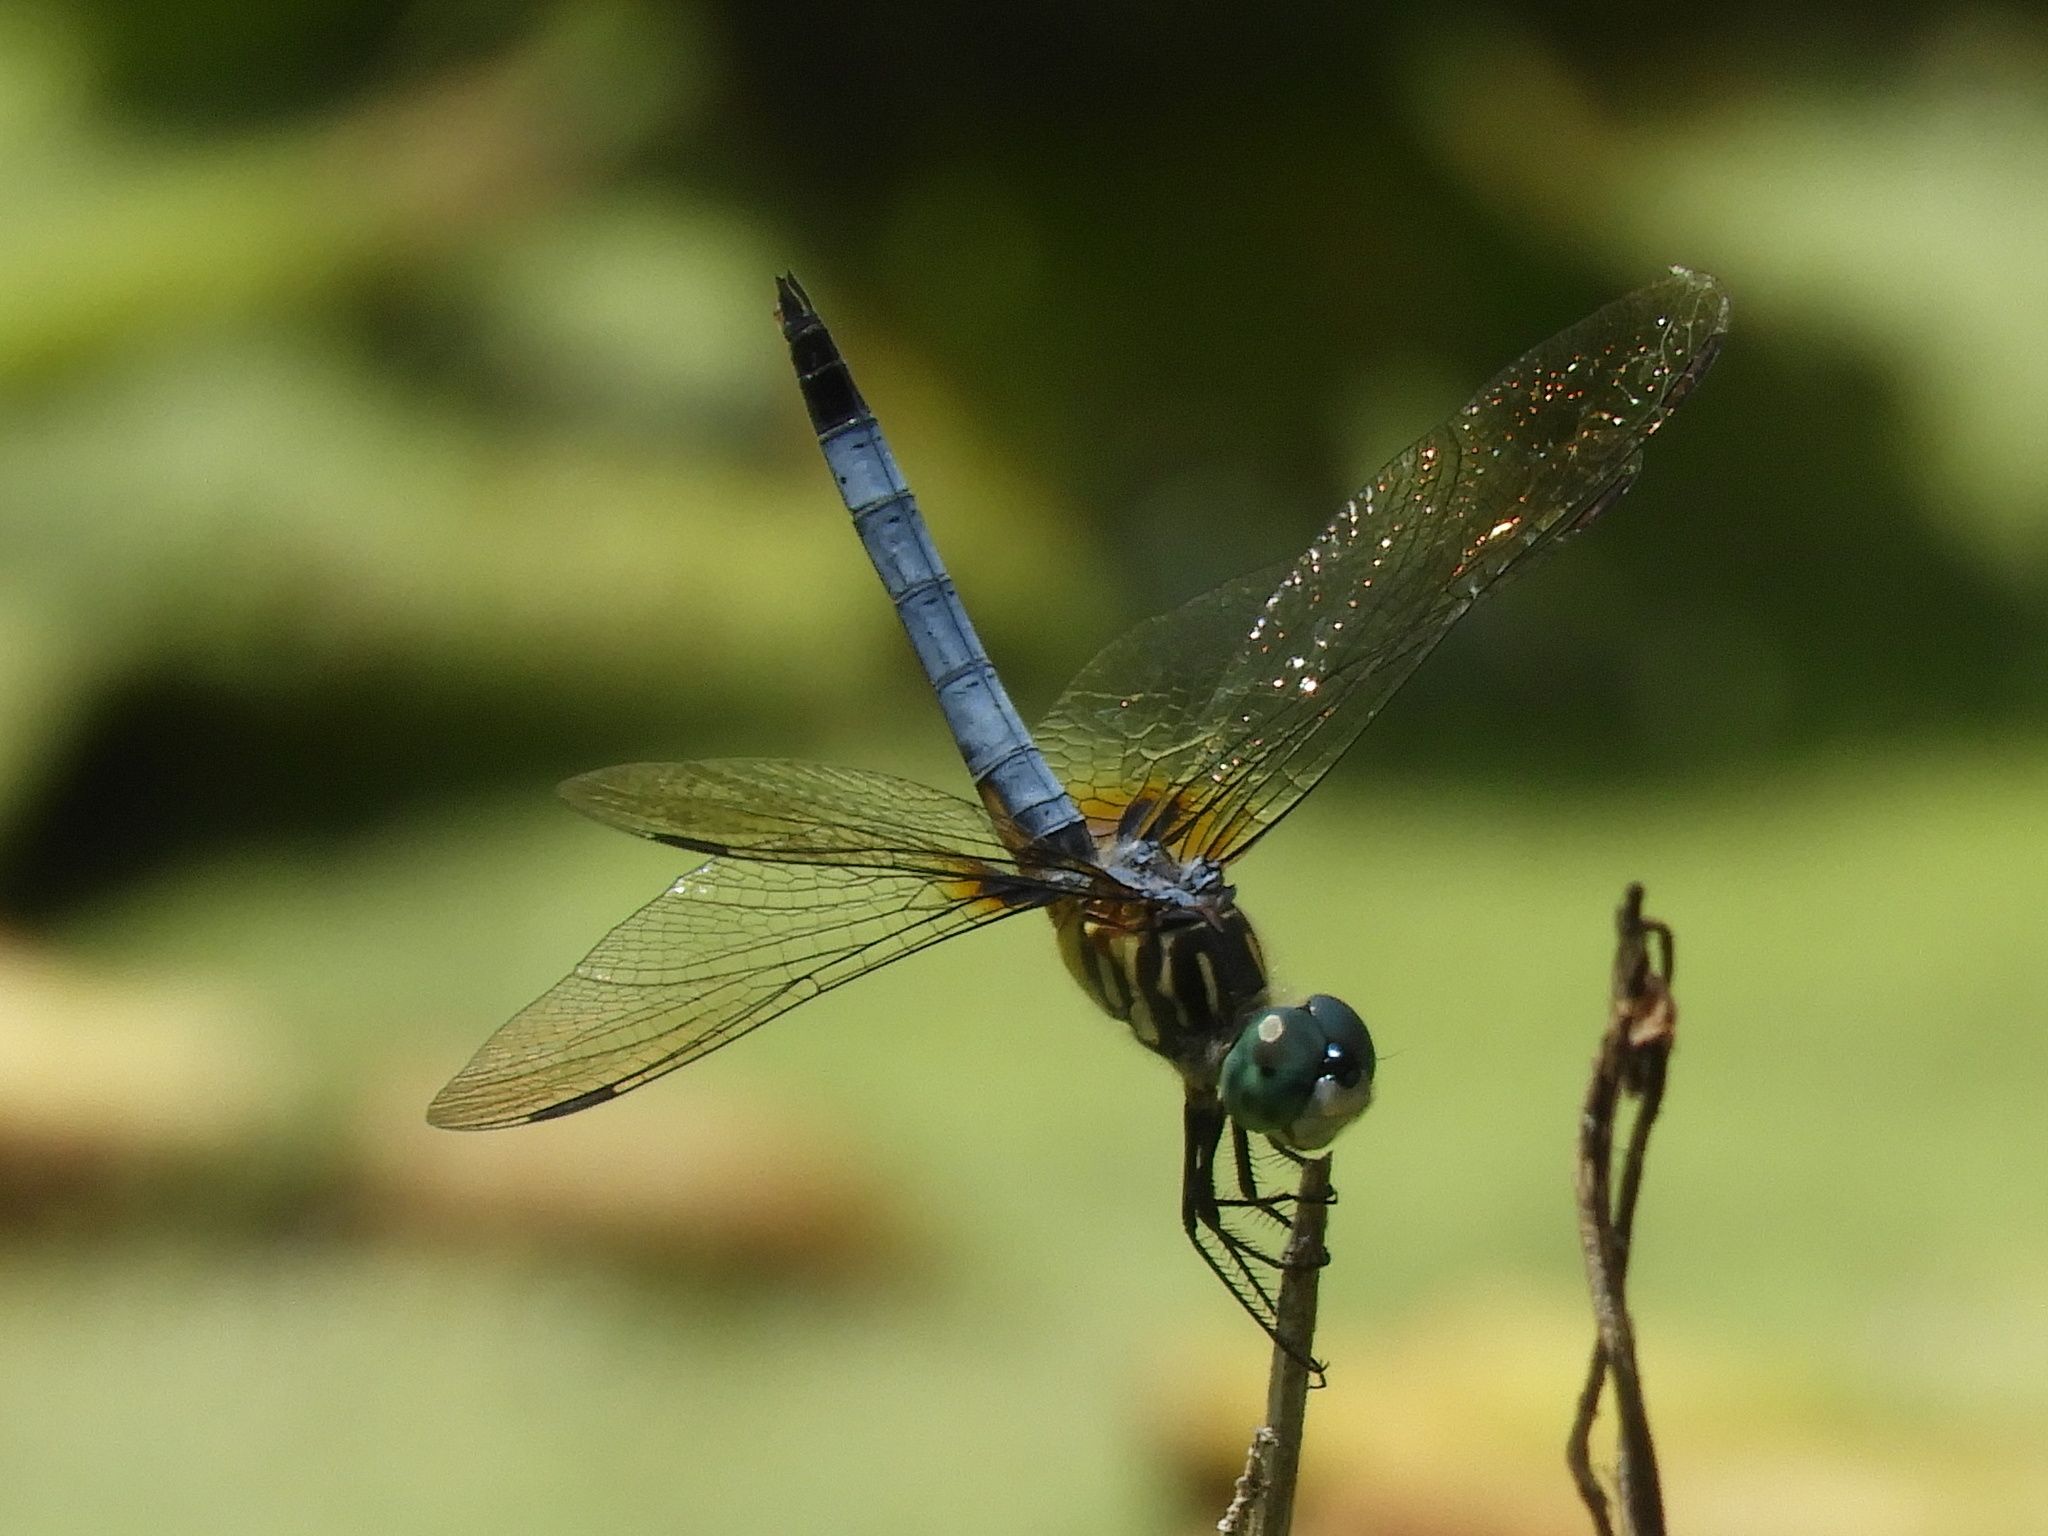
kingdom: Animalia
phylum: Arthropoda
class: Insecta
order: Odonata
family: Libellulidae
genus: Pachydiplax
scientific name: Pachydiplax longipennis
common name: Blue dasher
